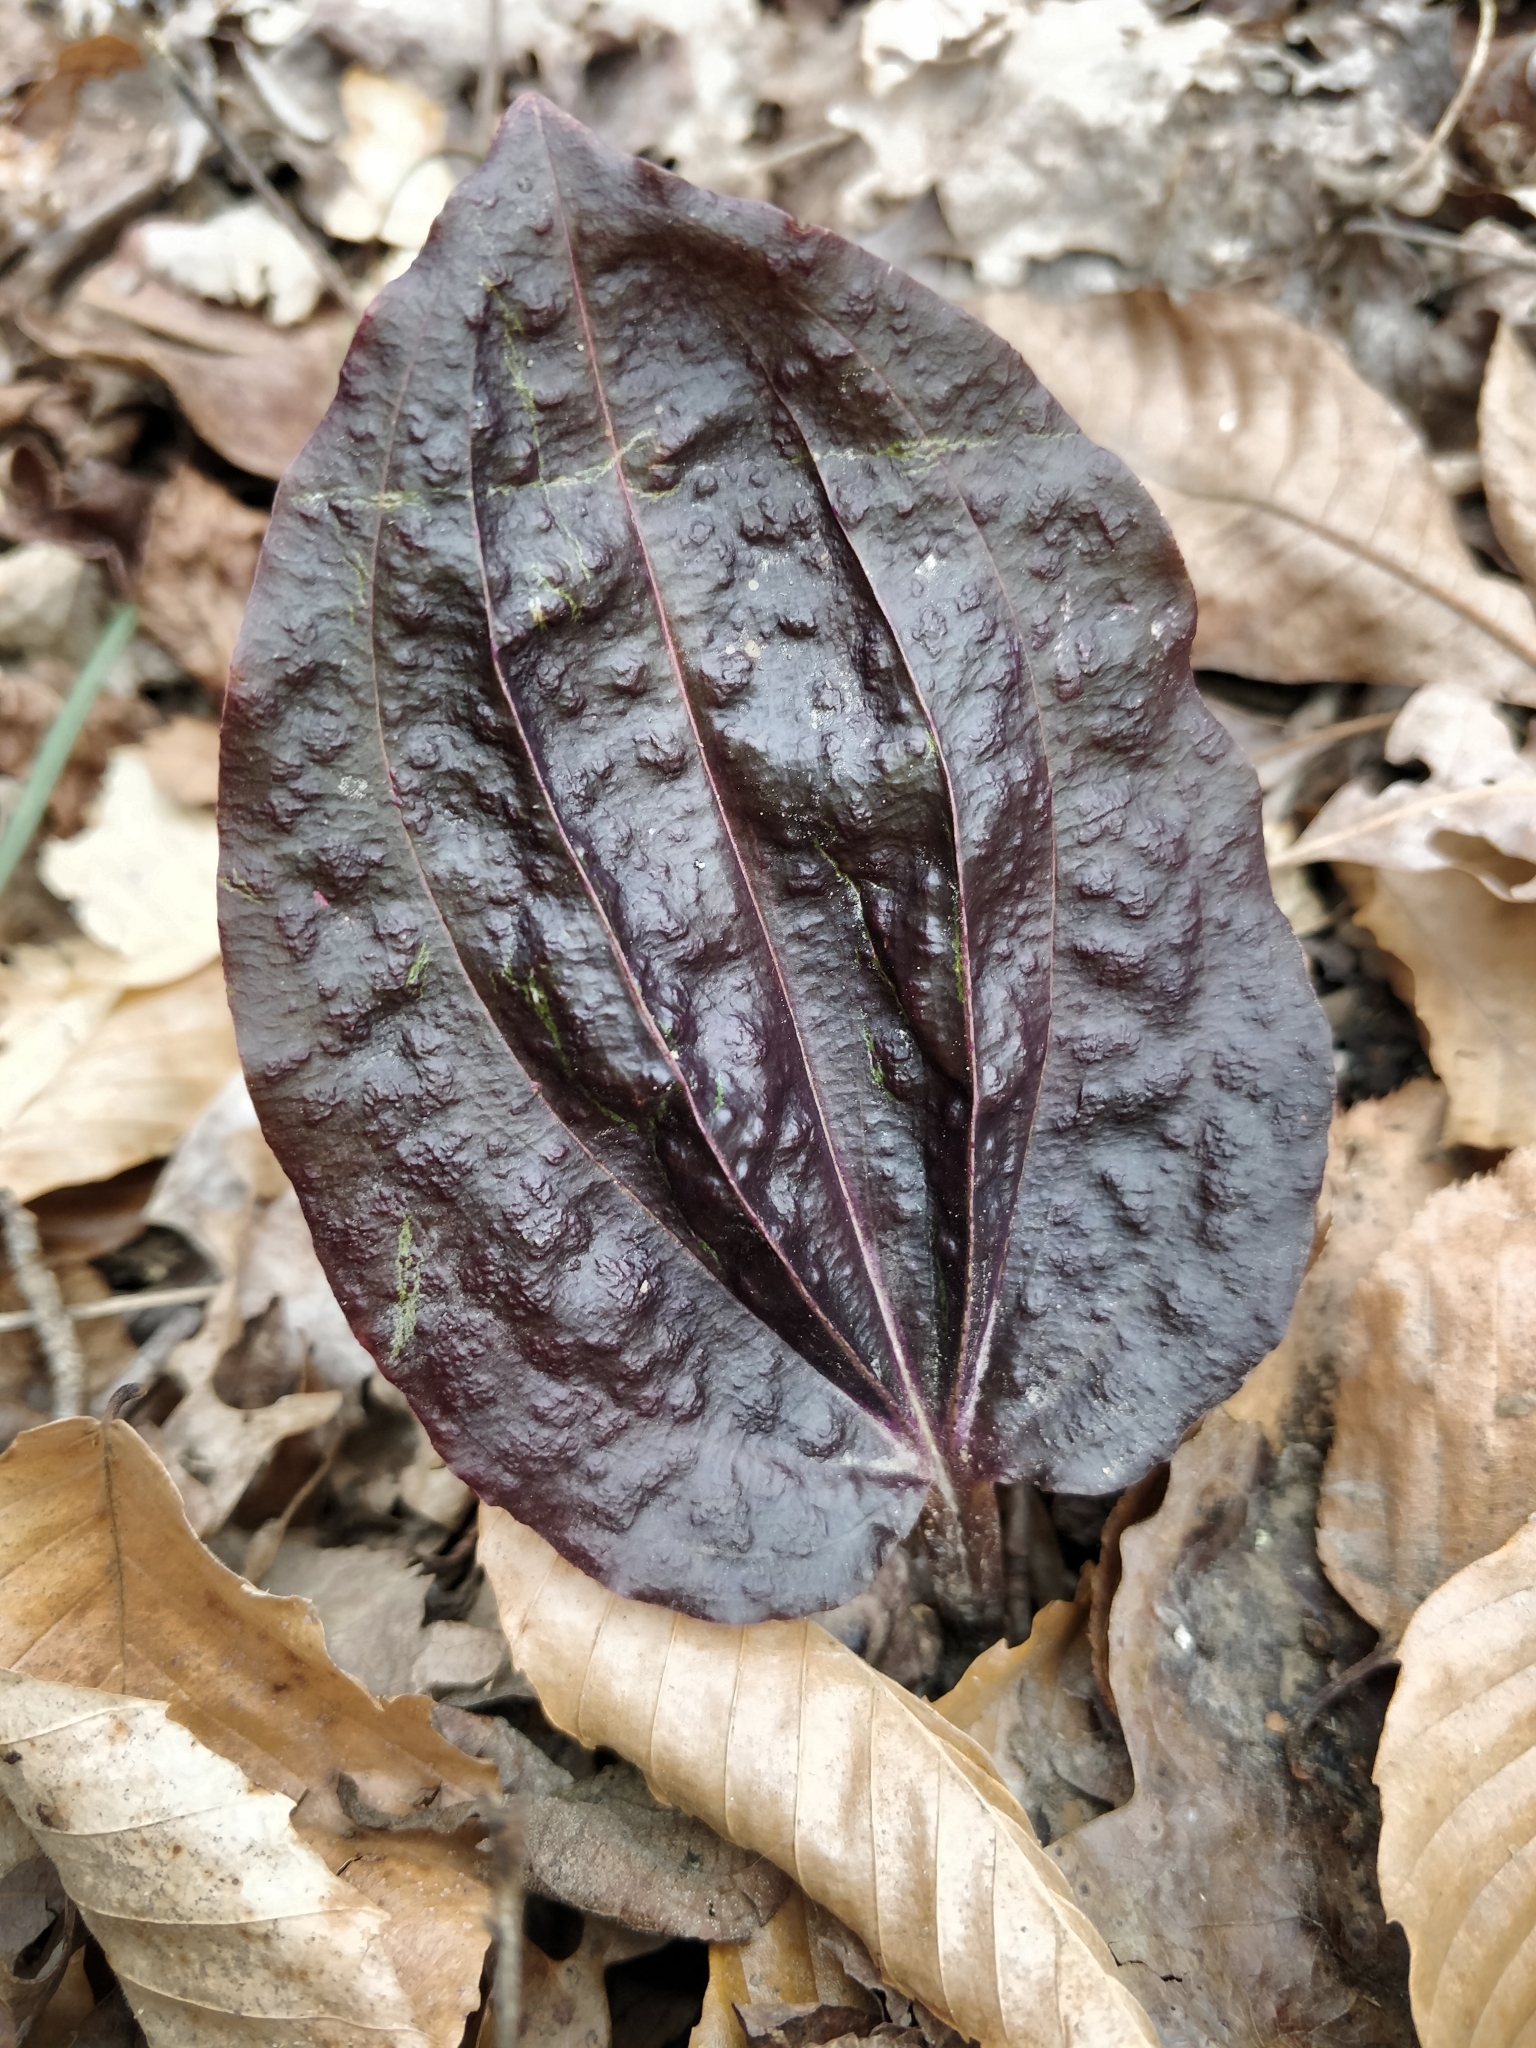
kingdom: Plantae
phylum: Tracheophyta
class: Liliopsida
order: Asparagales
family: Orchidaceae
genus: Tipularia
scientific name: Tipularia discolor
